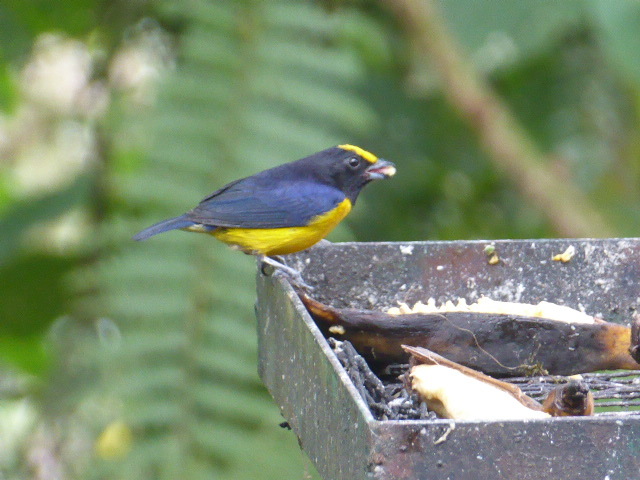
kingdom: Animalia
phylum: Chordata
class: Aves
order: Passeriformes
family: Fringillidae
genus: Euphonia
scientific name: Euphonia xanthogaster
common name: Orange-bellied euphonia
